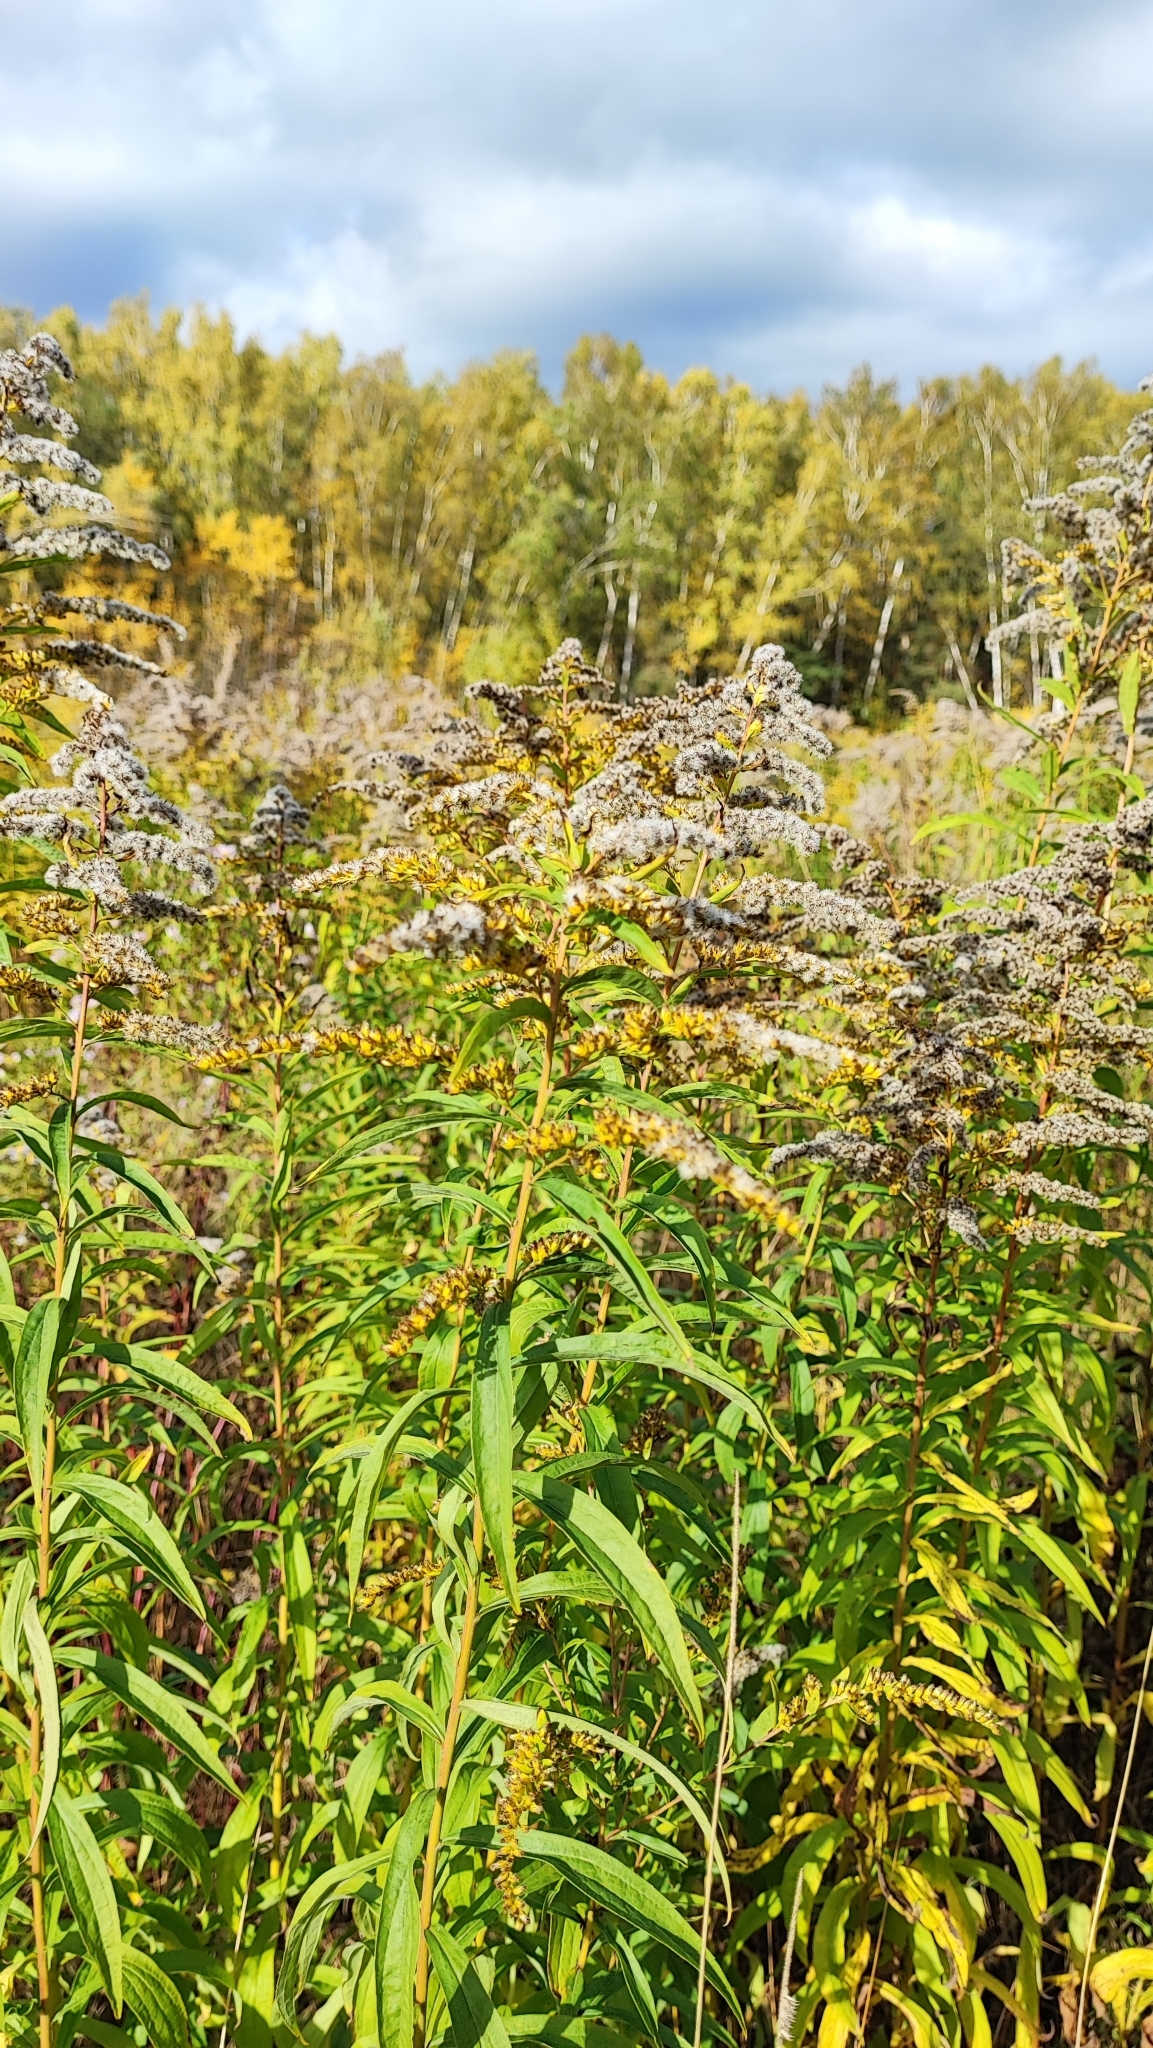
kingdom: Plantae
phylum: Tracheophyta
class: Magnoliopsida
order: Asterales
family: Asteraceae
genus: Solidago
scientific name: Solidago canadensis
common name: Canada goldenrod
